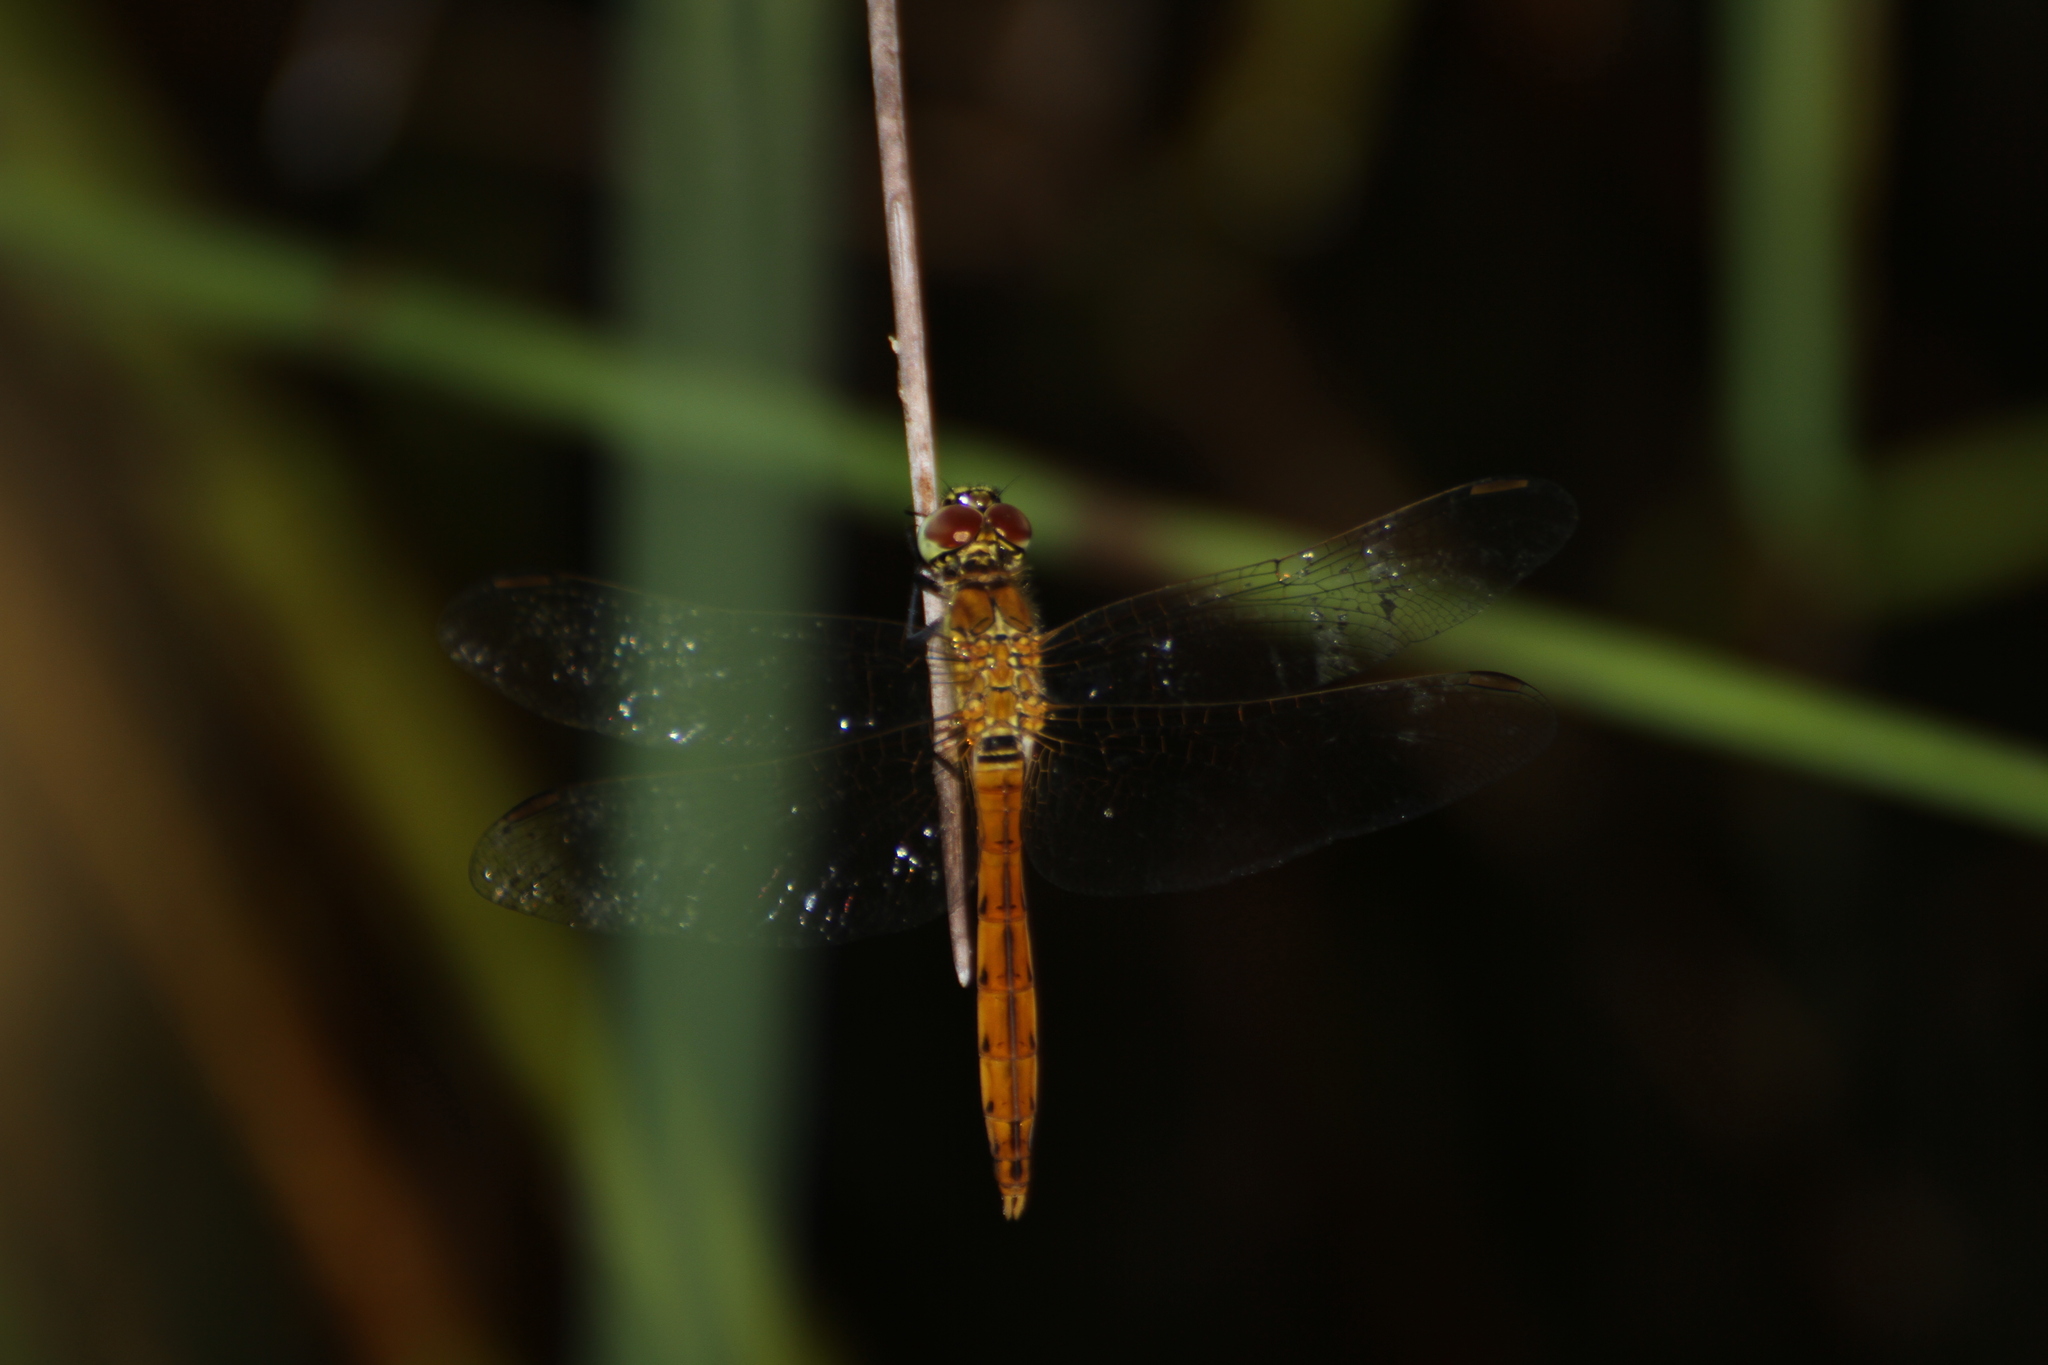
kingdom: Animalia
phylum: Arthropoda
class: Insecta
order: Odonata
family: Libellulidae
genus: Sympetrum
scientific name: Sympetrum depressiusculum
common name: Spotted darter
